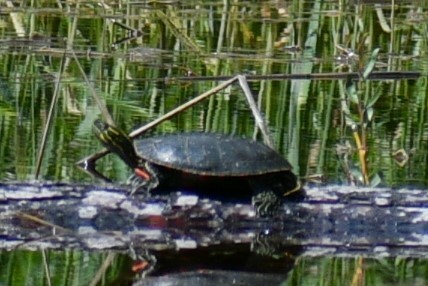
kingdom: Animalia
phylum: Chordata
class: Testudines
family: Emydidae
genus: Chrysemys
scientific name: Chrysemys picta
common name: Painted turtle
